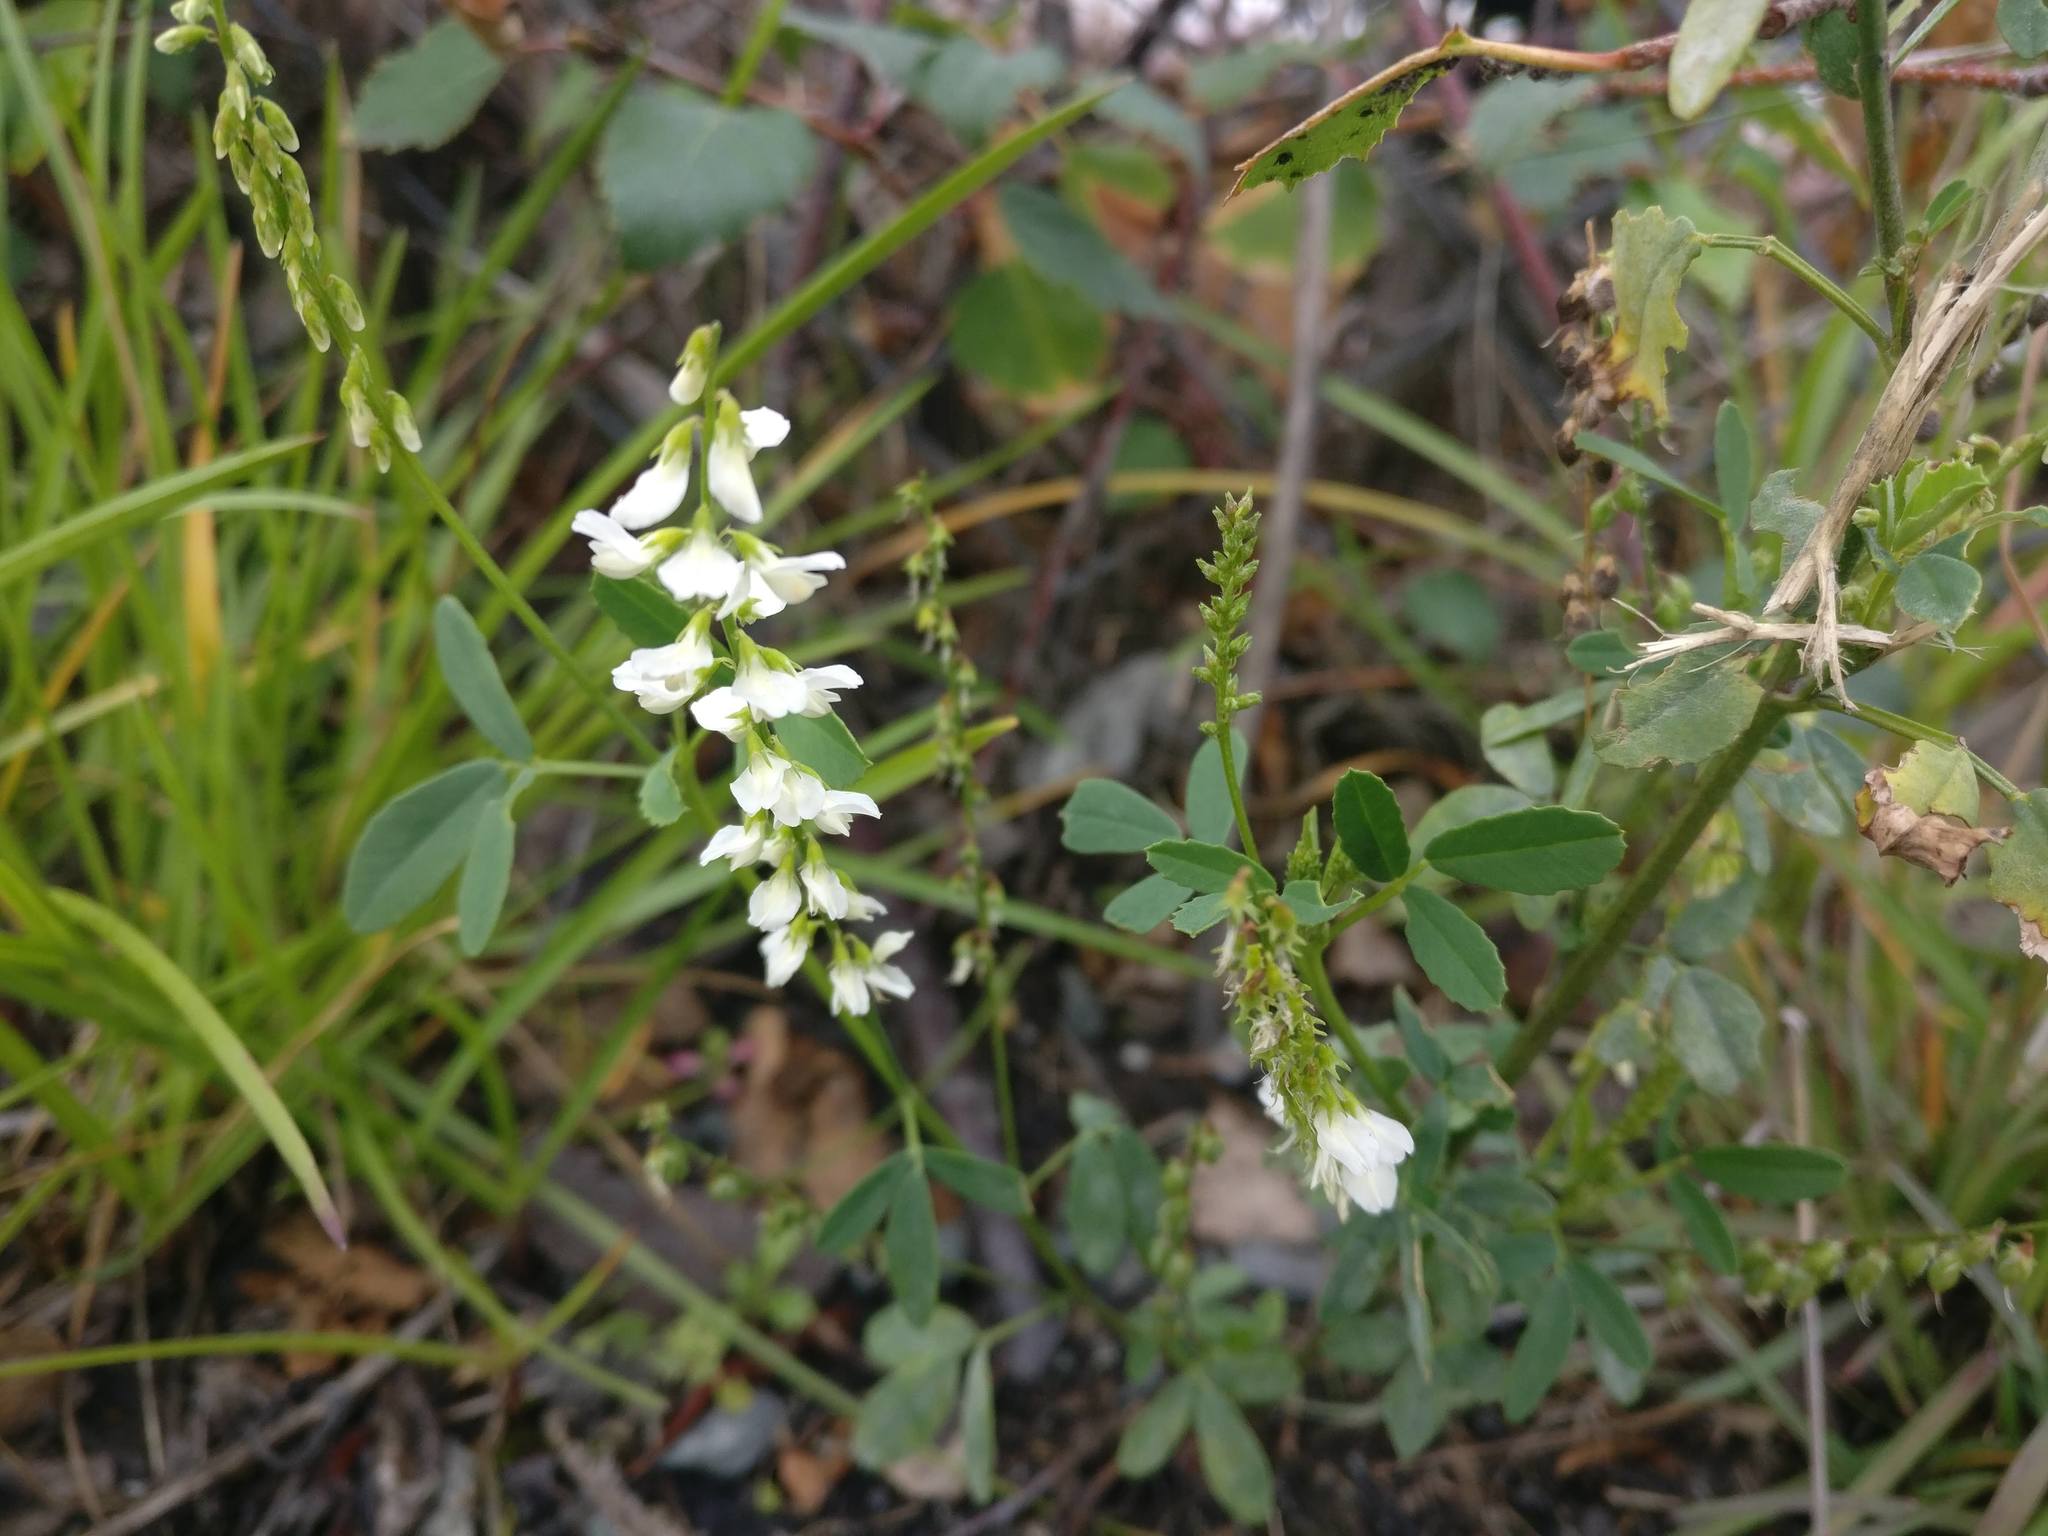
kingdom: Plantae
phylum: Tracheophyta
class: Magnoliopsida
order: Fabales
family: Fabaceae
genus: Melilotus
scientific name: Melilotus albus
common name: White melilot
